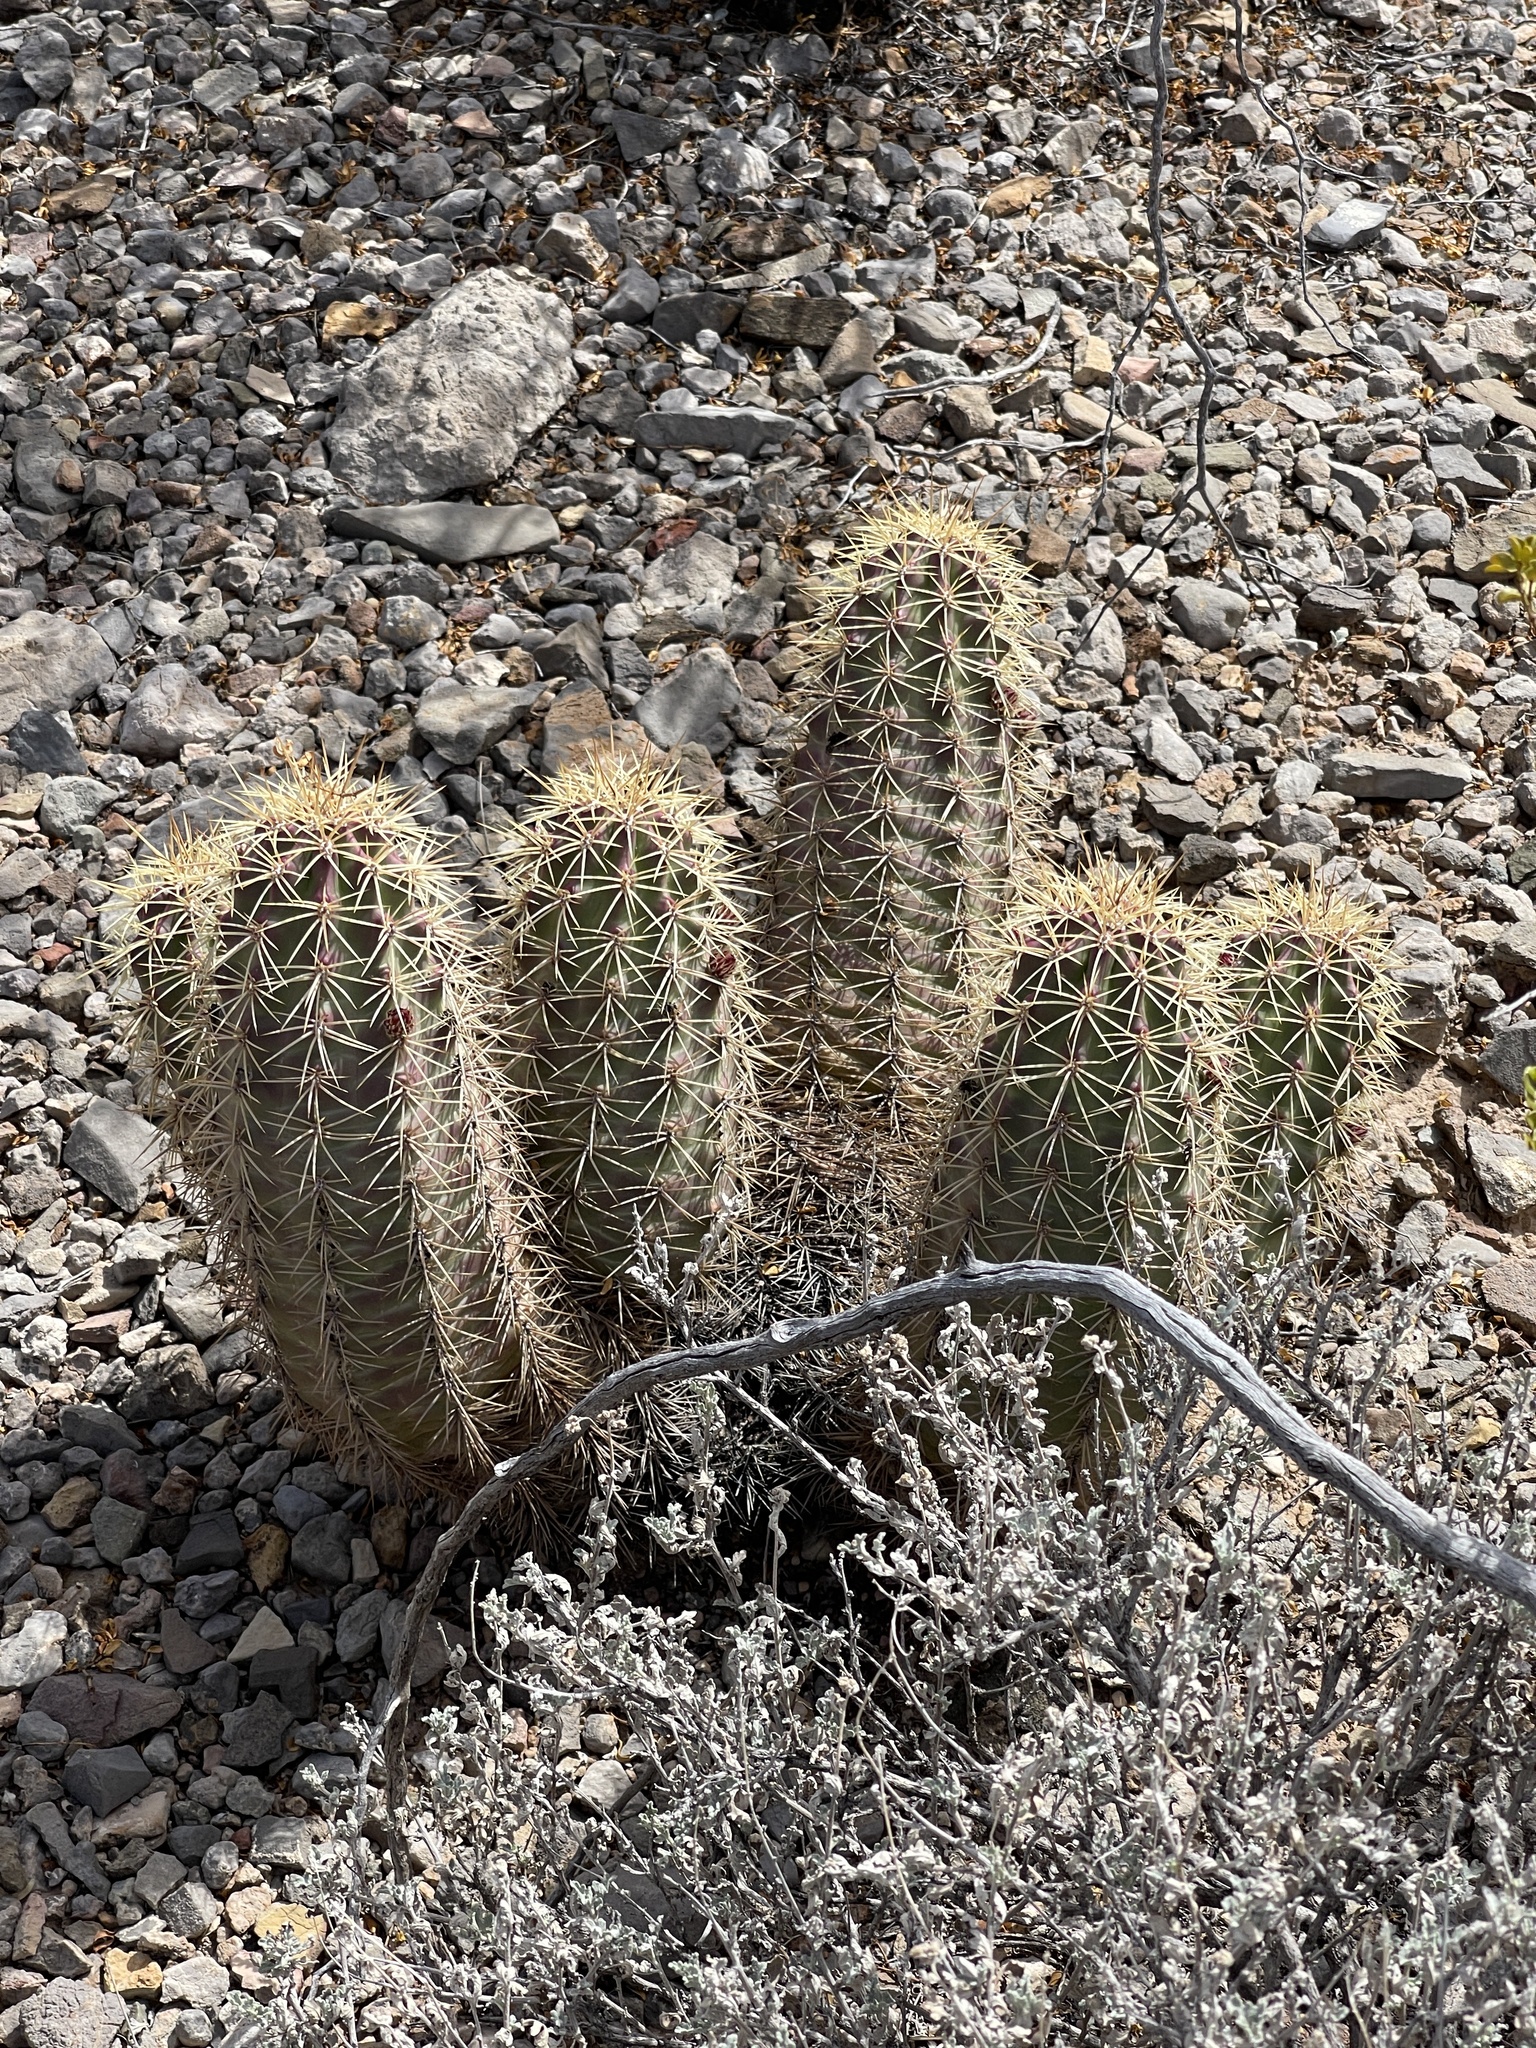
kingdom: Plantae
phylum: Tracheophyta
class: Magnoliopsida
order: Caryophyllales
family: Cactaceae
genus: Echinocereus
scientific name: Echinocereus coccineus
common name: Scarlet hedgehog cactus
